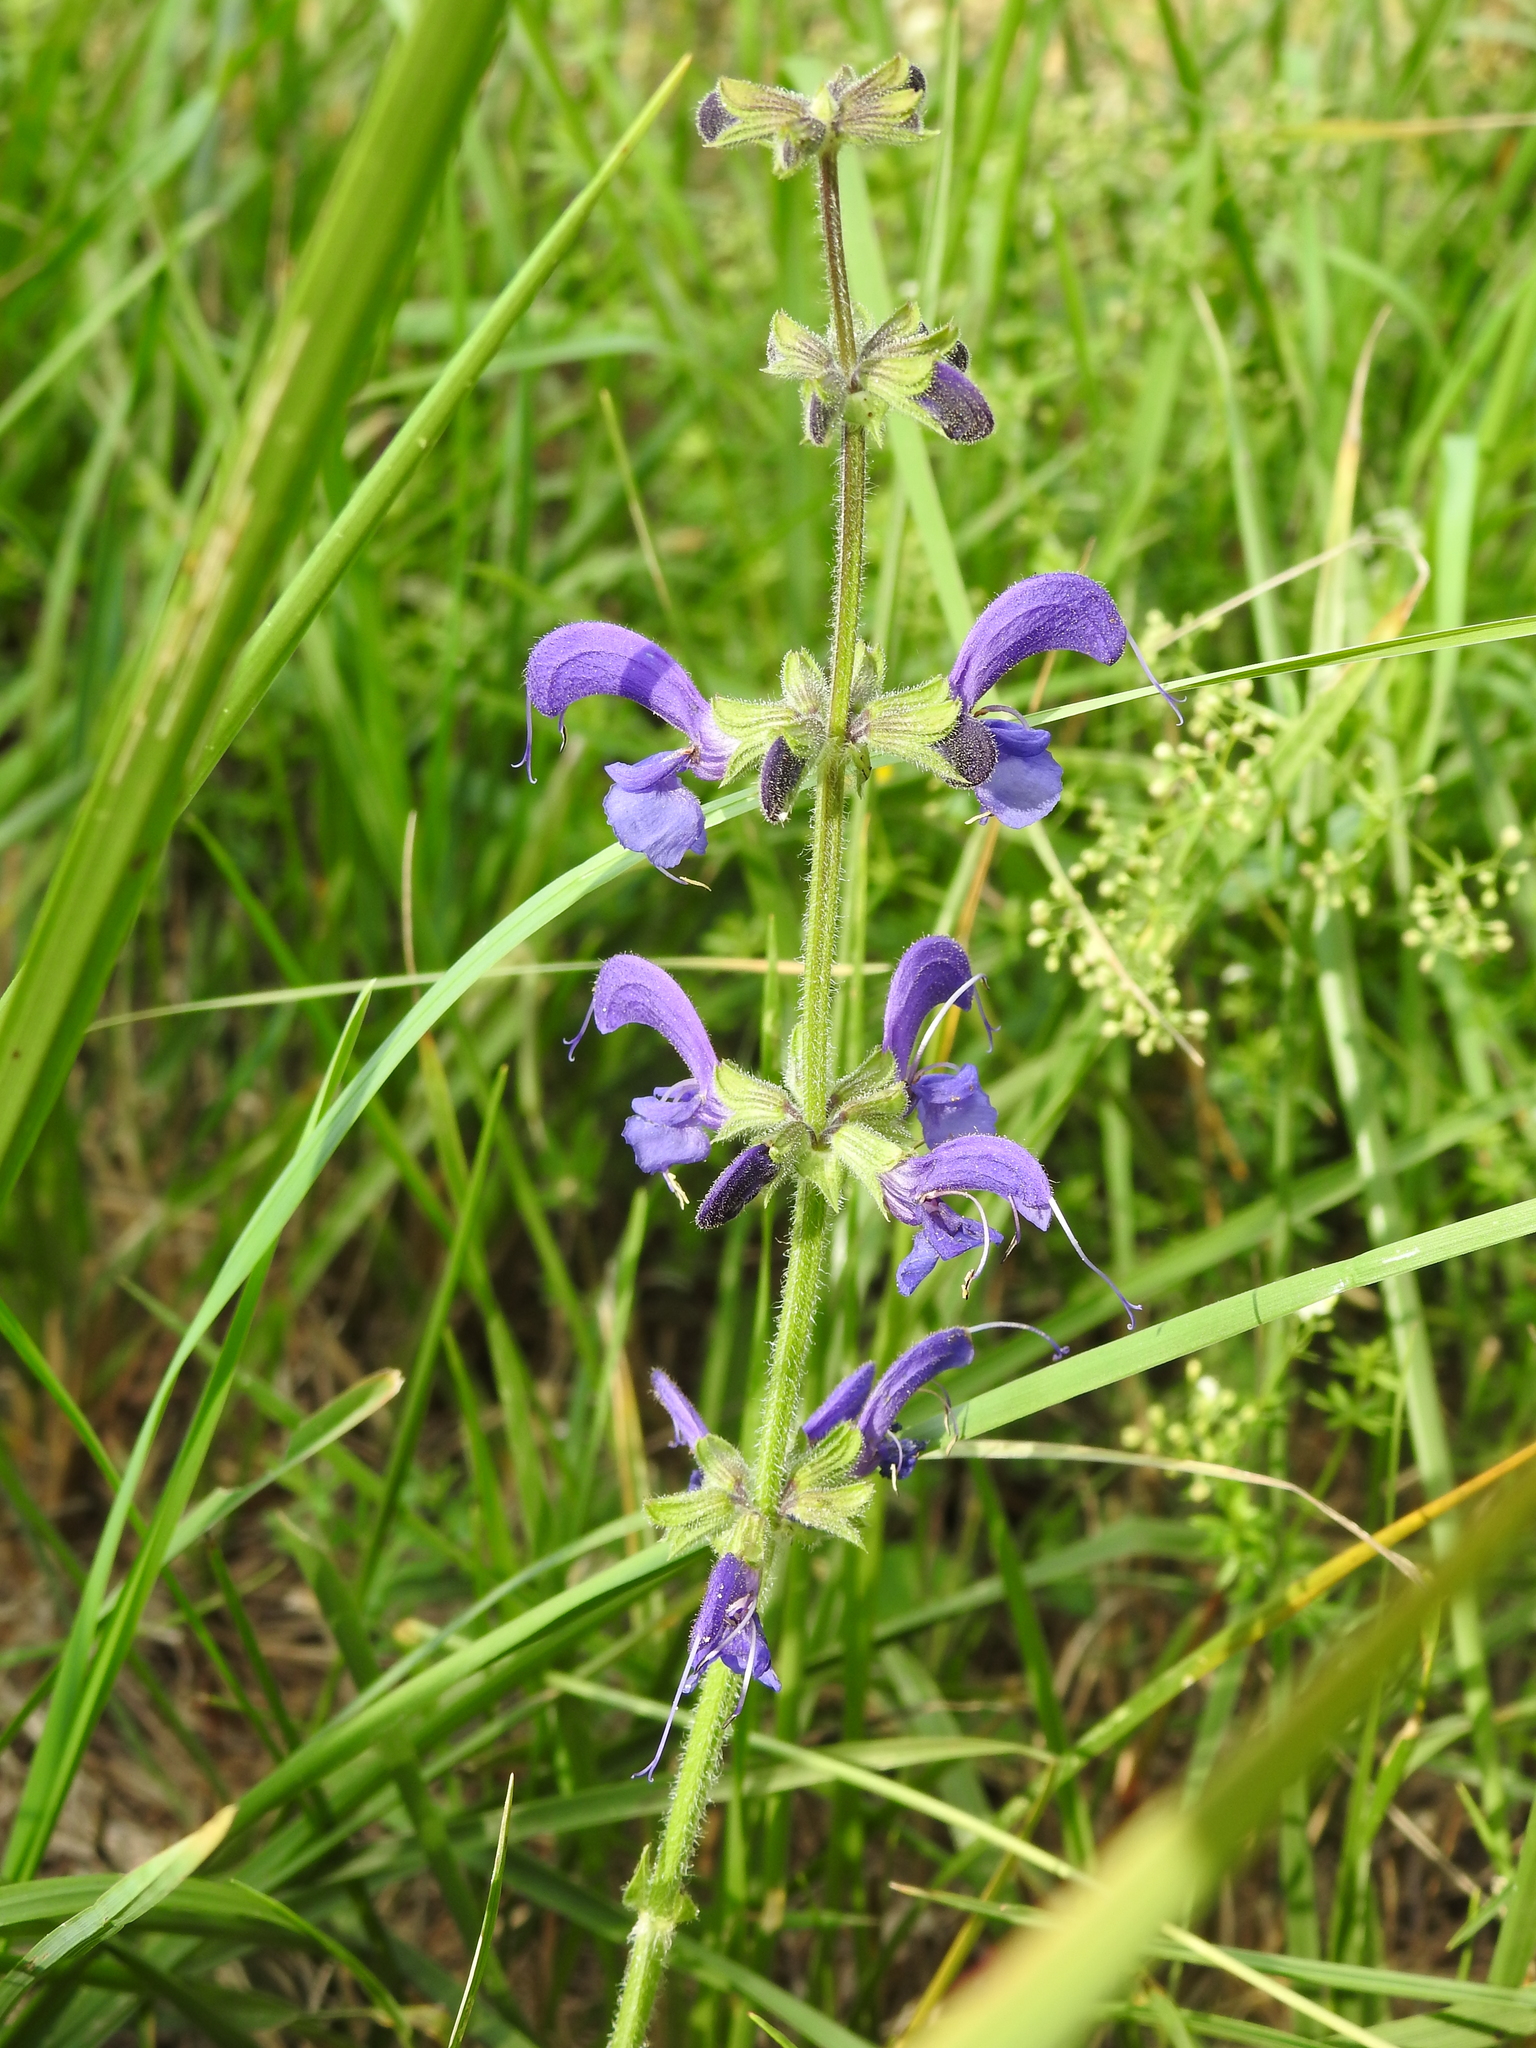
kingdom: Plantae
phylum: Tracheophyta
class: Magnoliopsida
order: Lamiales
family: Lamiaceae
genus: Salvia
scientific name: Salvia pratensis
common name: Meadow sage
